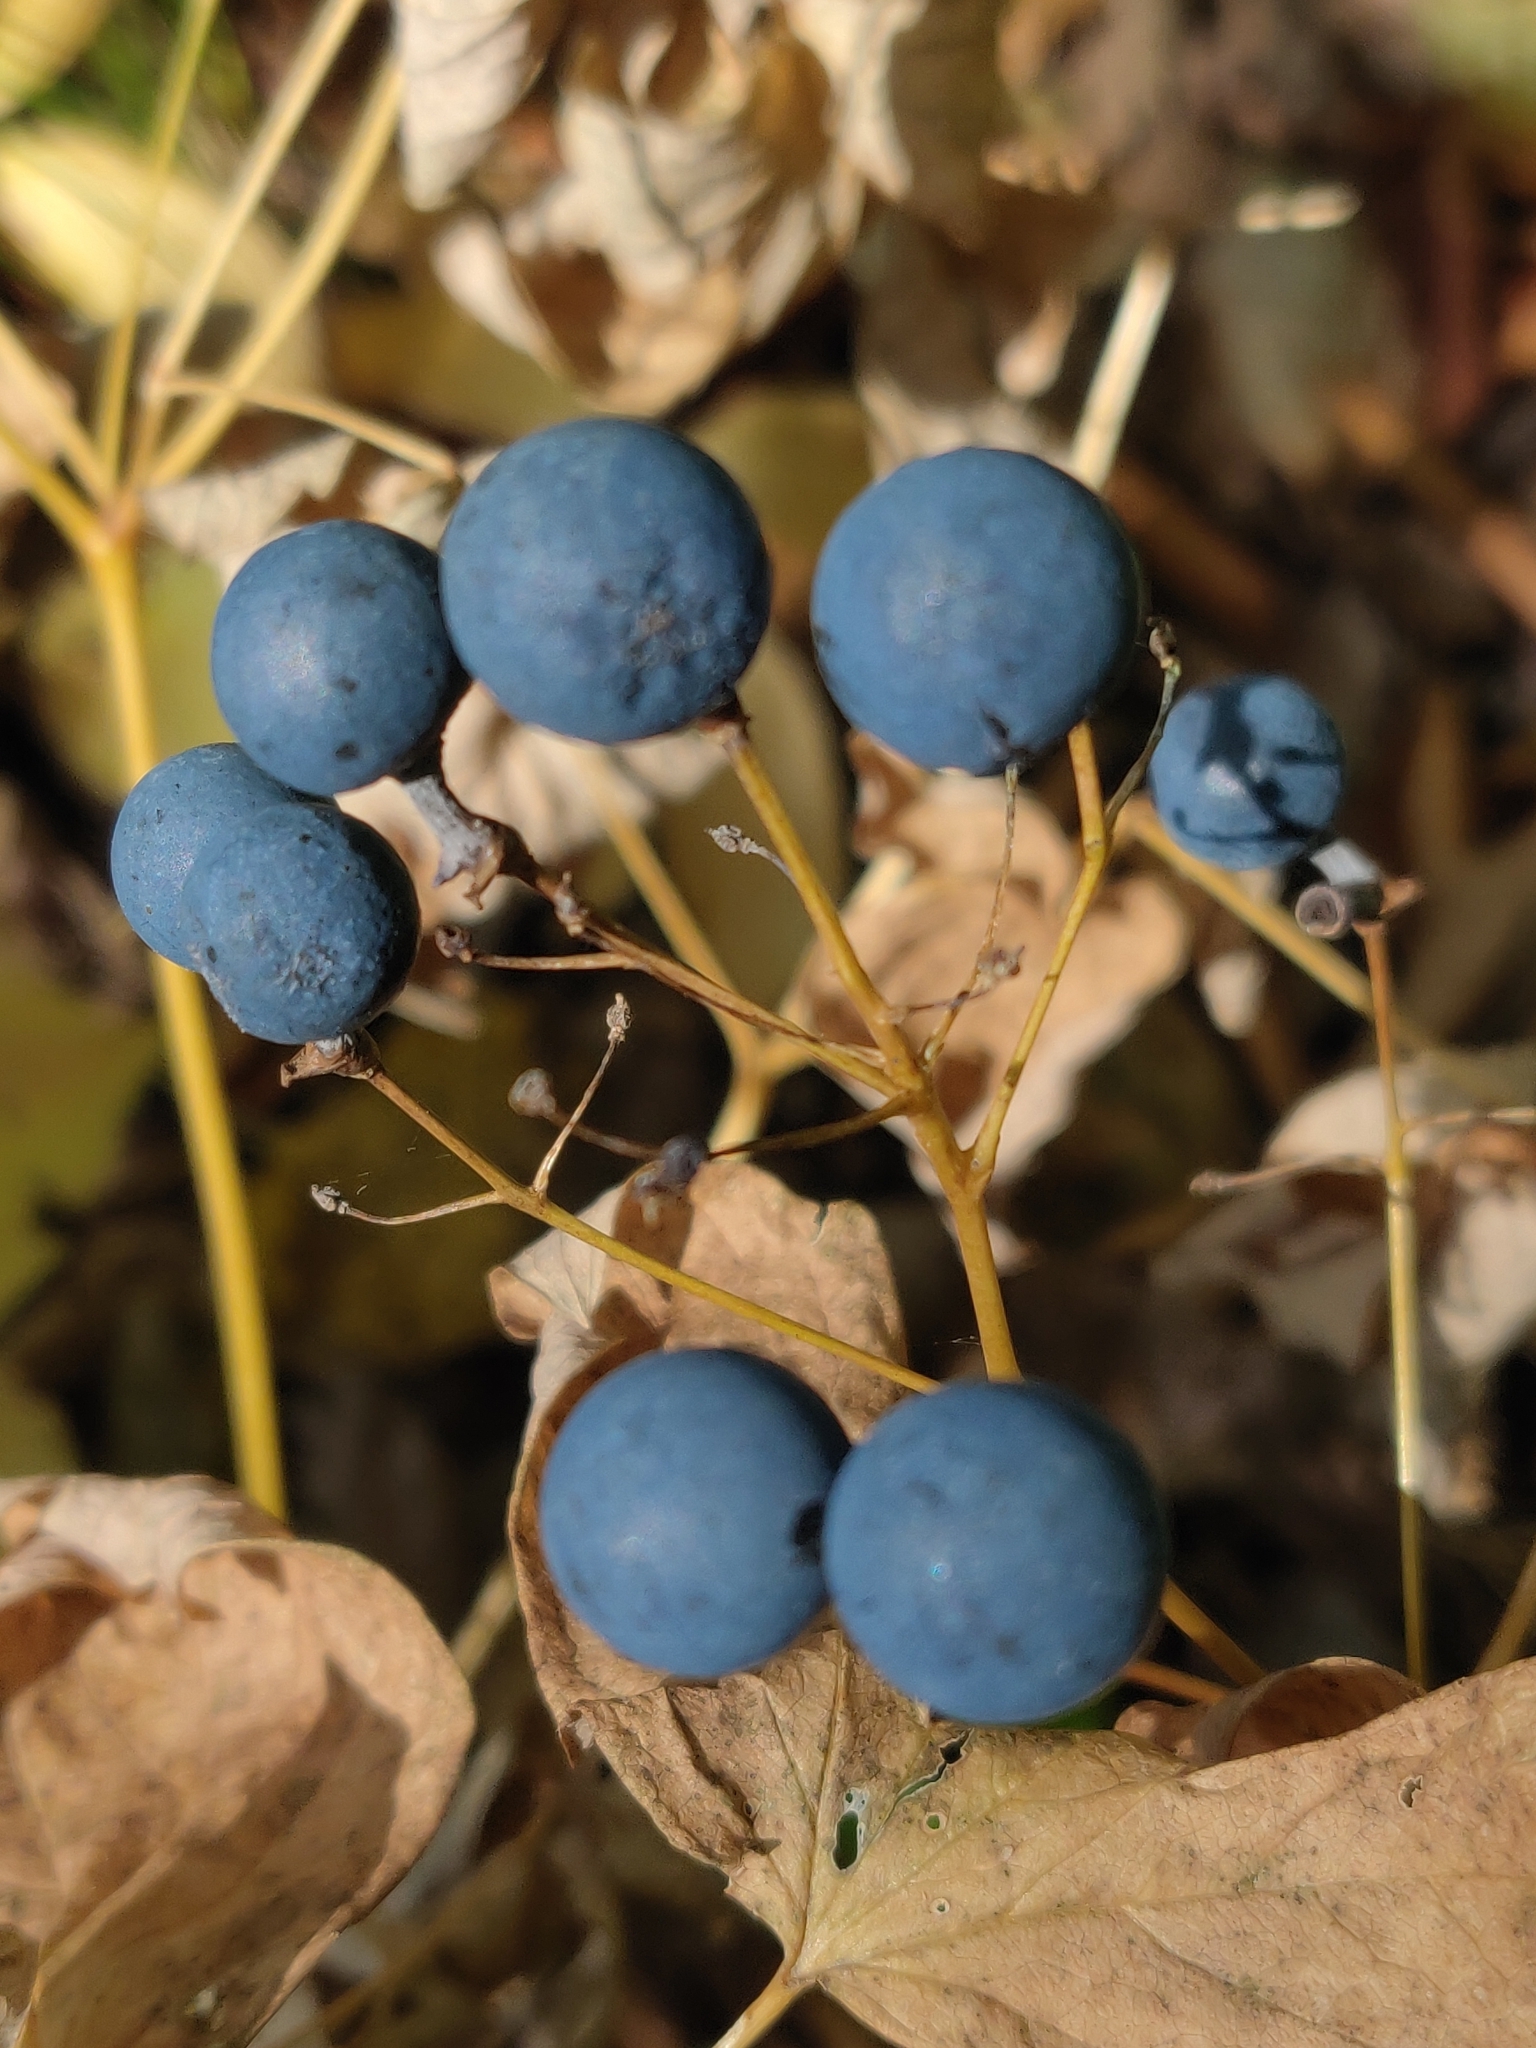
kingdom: Plantae
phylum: Tracheophyta
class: Magnoliopsida
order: Ranunculales
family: Berberidaceae
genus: Caulophyllum
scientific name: Caulophyllum thalictroides
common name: Blue cohosh
